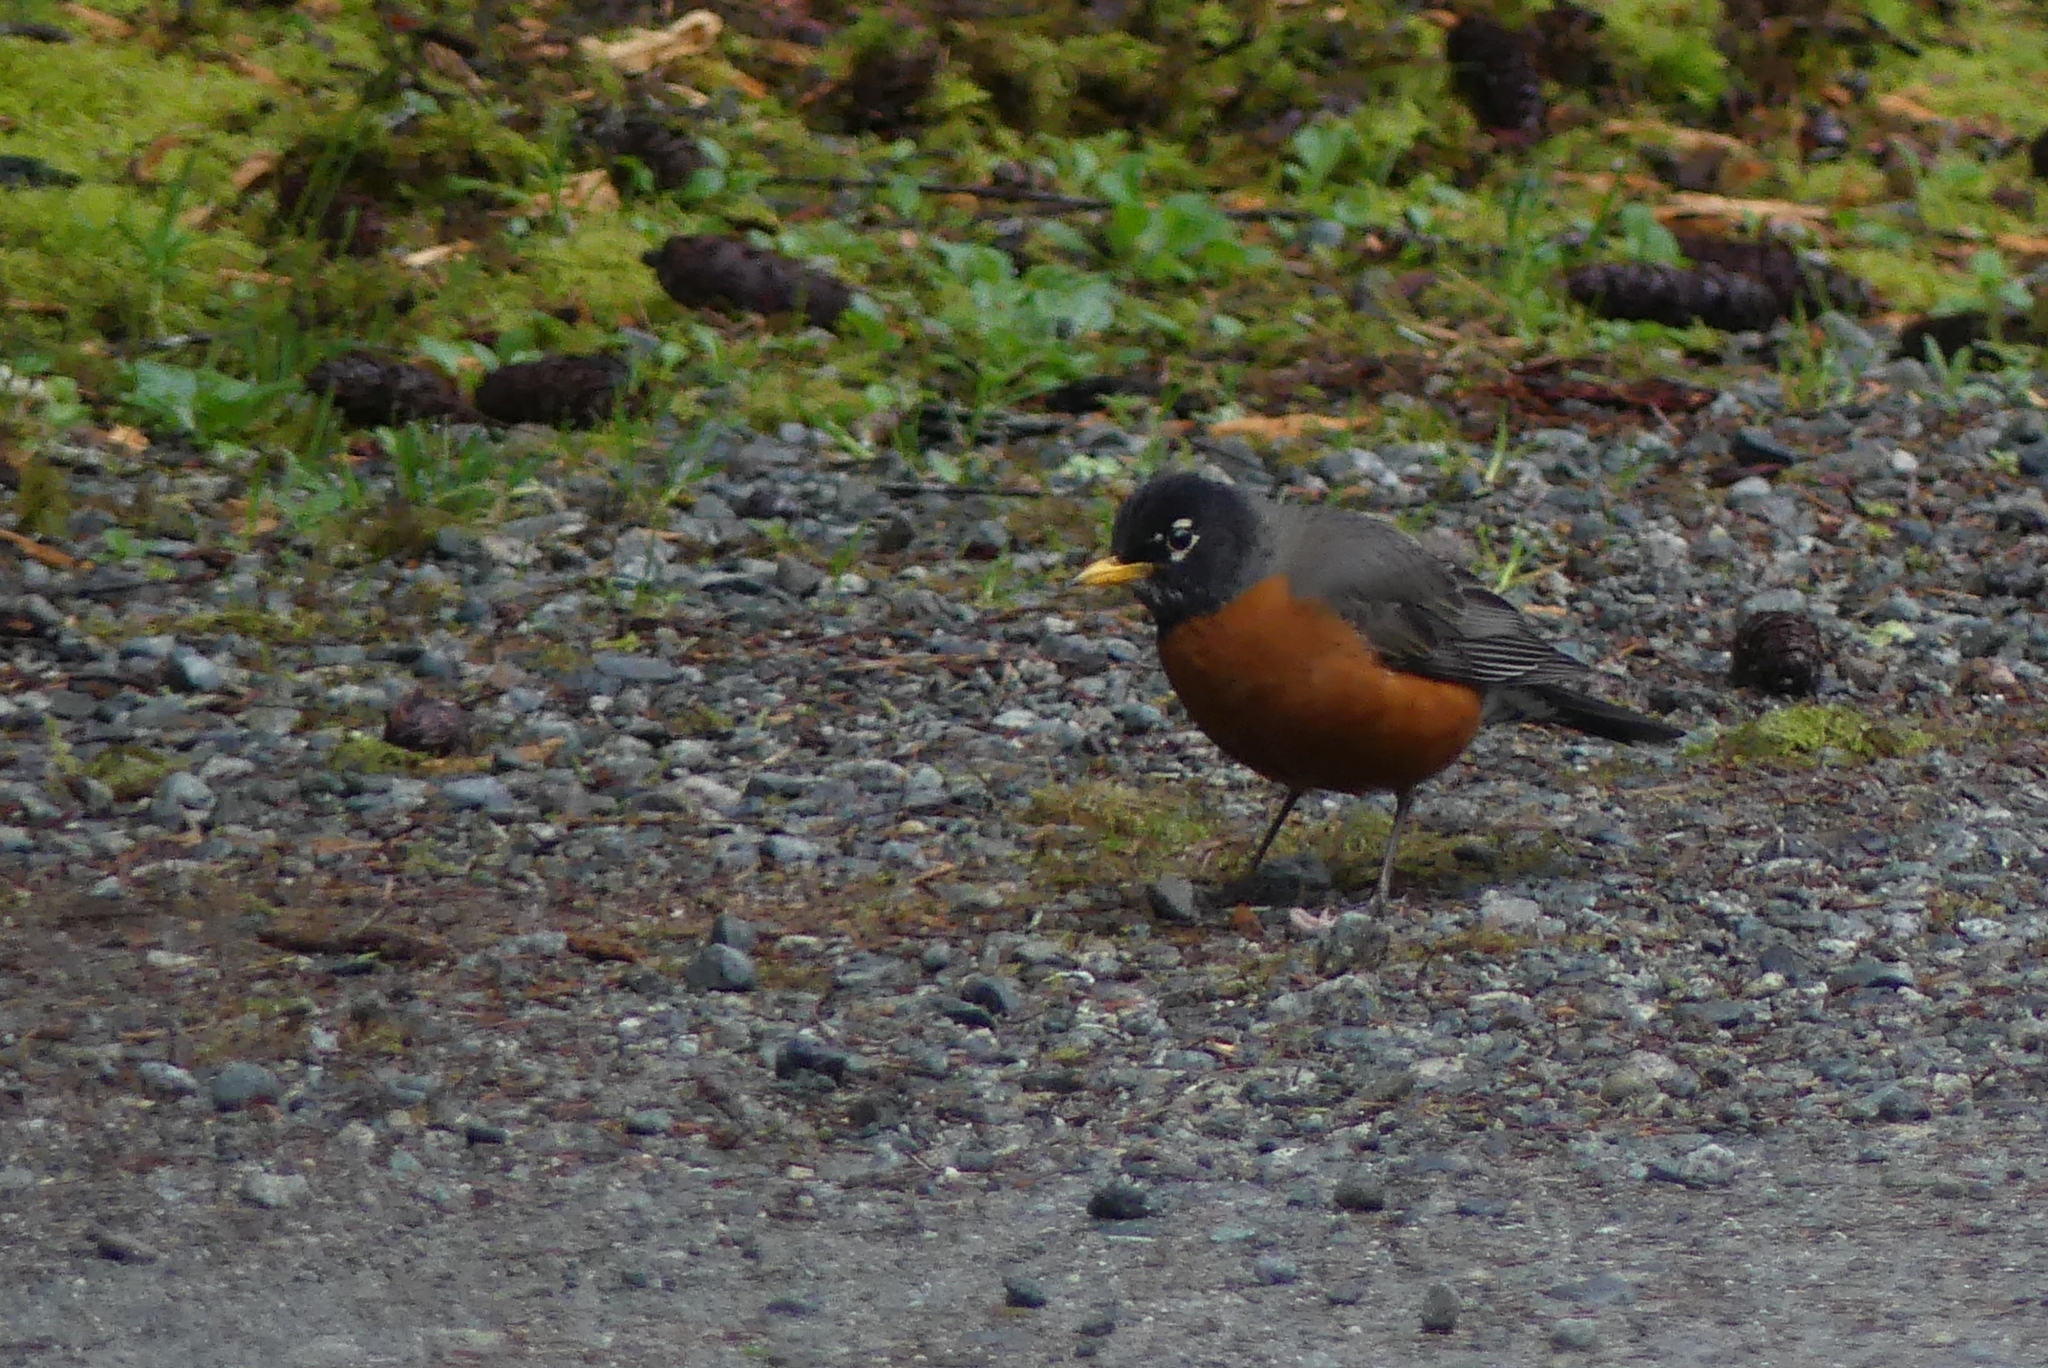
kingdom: Animalia
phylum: Chordata
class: Aves
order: Passeriformes
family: Turdidae
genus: Turdus
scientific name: Turdus migratorius
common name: American robin
